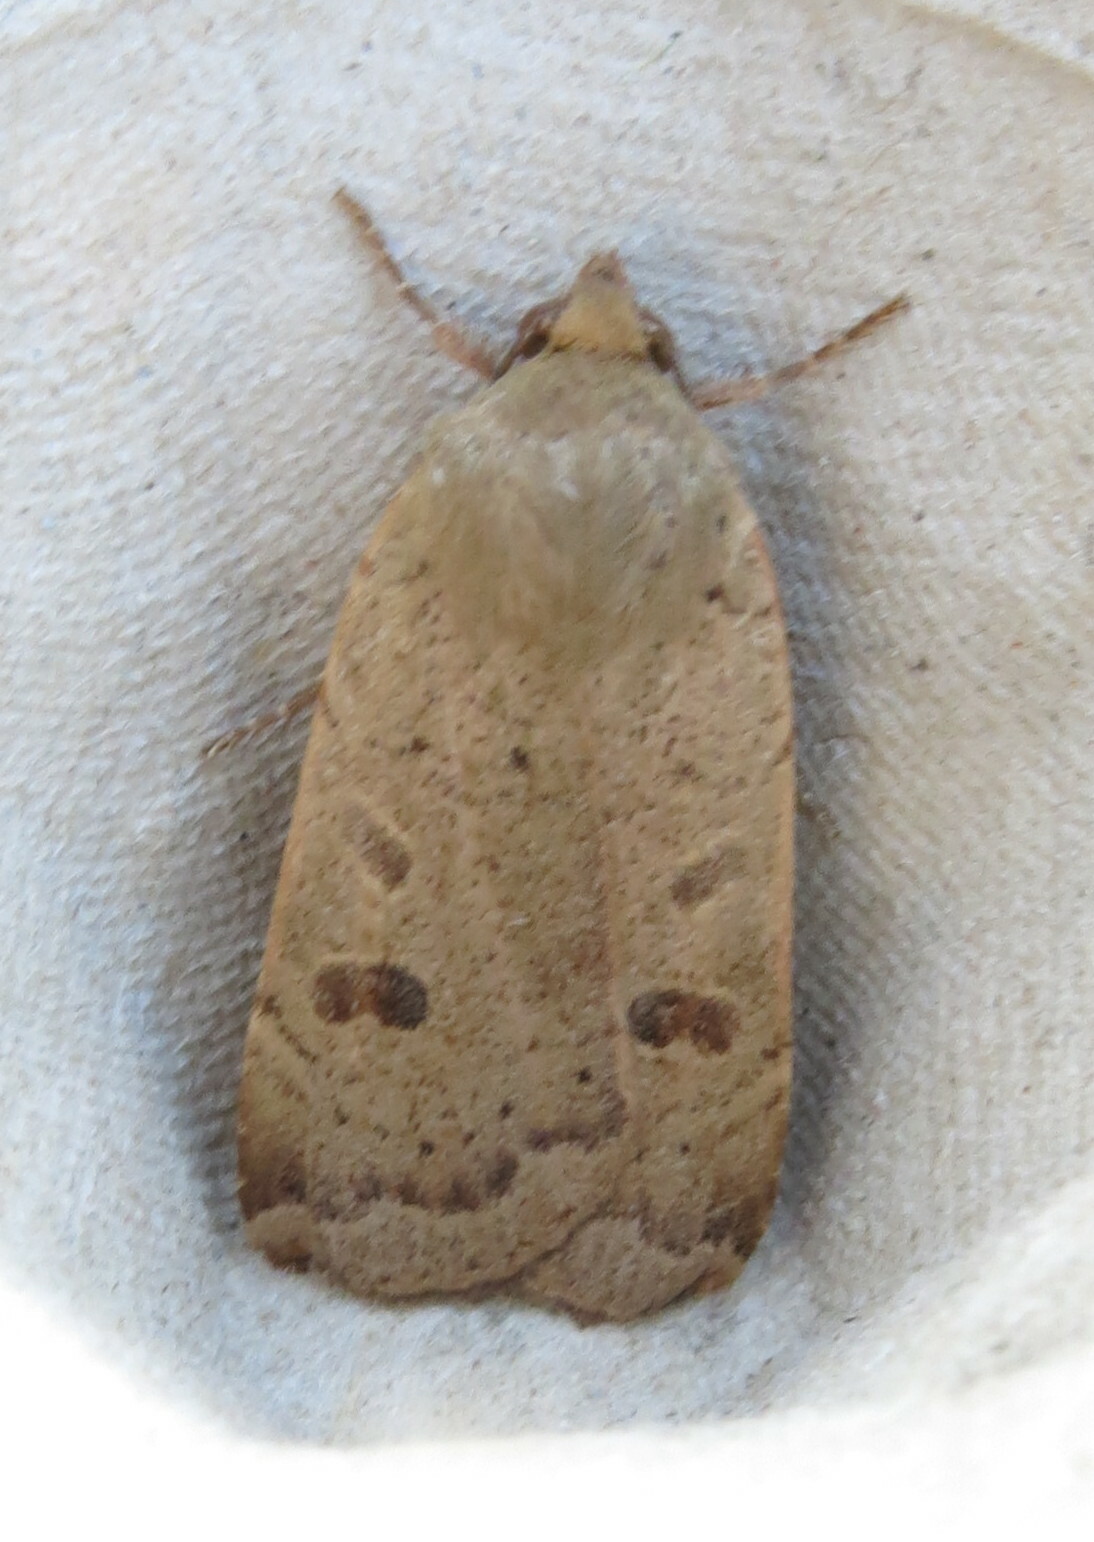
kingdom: Animalia
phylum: Arthropoda
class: Insecta
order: Lepidoptera
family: Noctuidae
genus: Noctua
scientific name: Noctua comes
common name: Lesser yellow underwing
